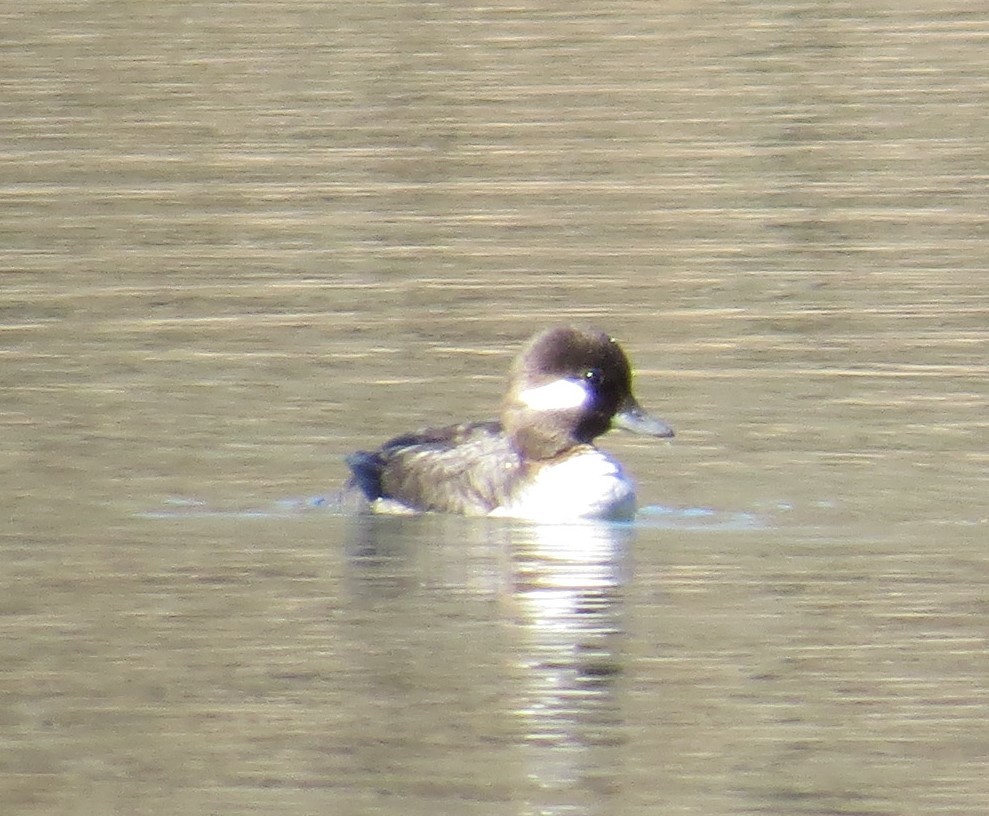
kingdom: Animalia
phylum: Chordata
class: Aves
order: Anseriformes
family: Anatidae
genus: Bucephala
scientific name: Bucephala albeola
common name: Bufflehead
